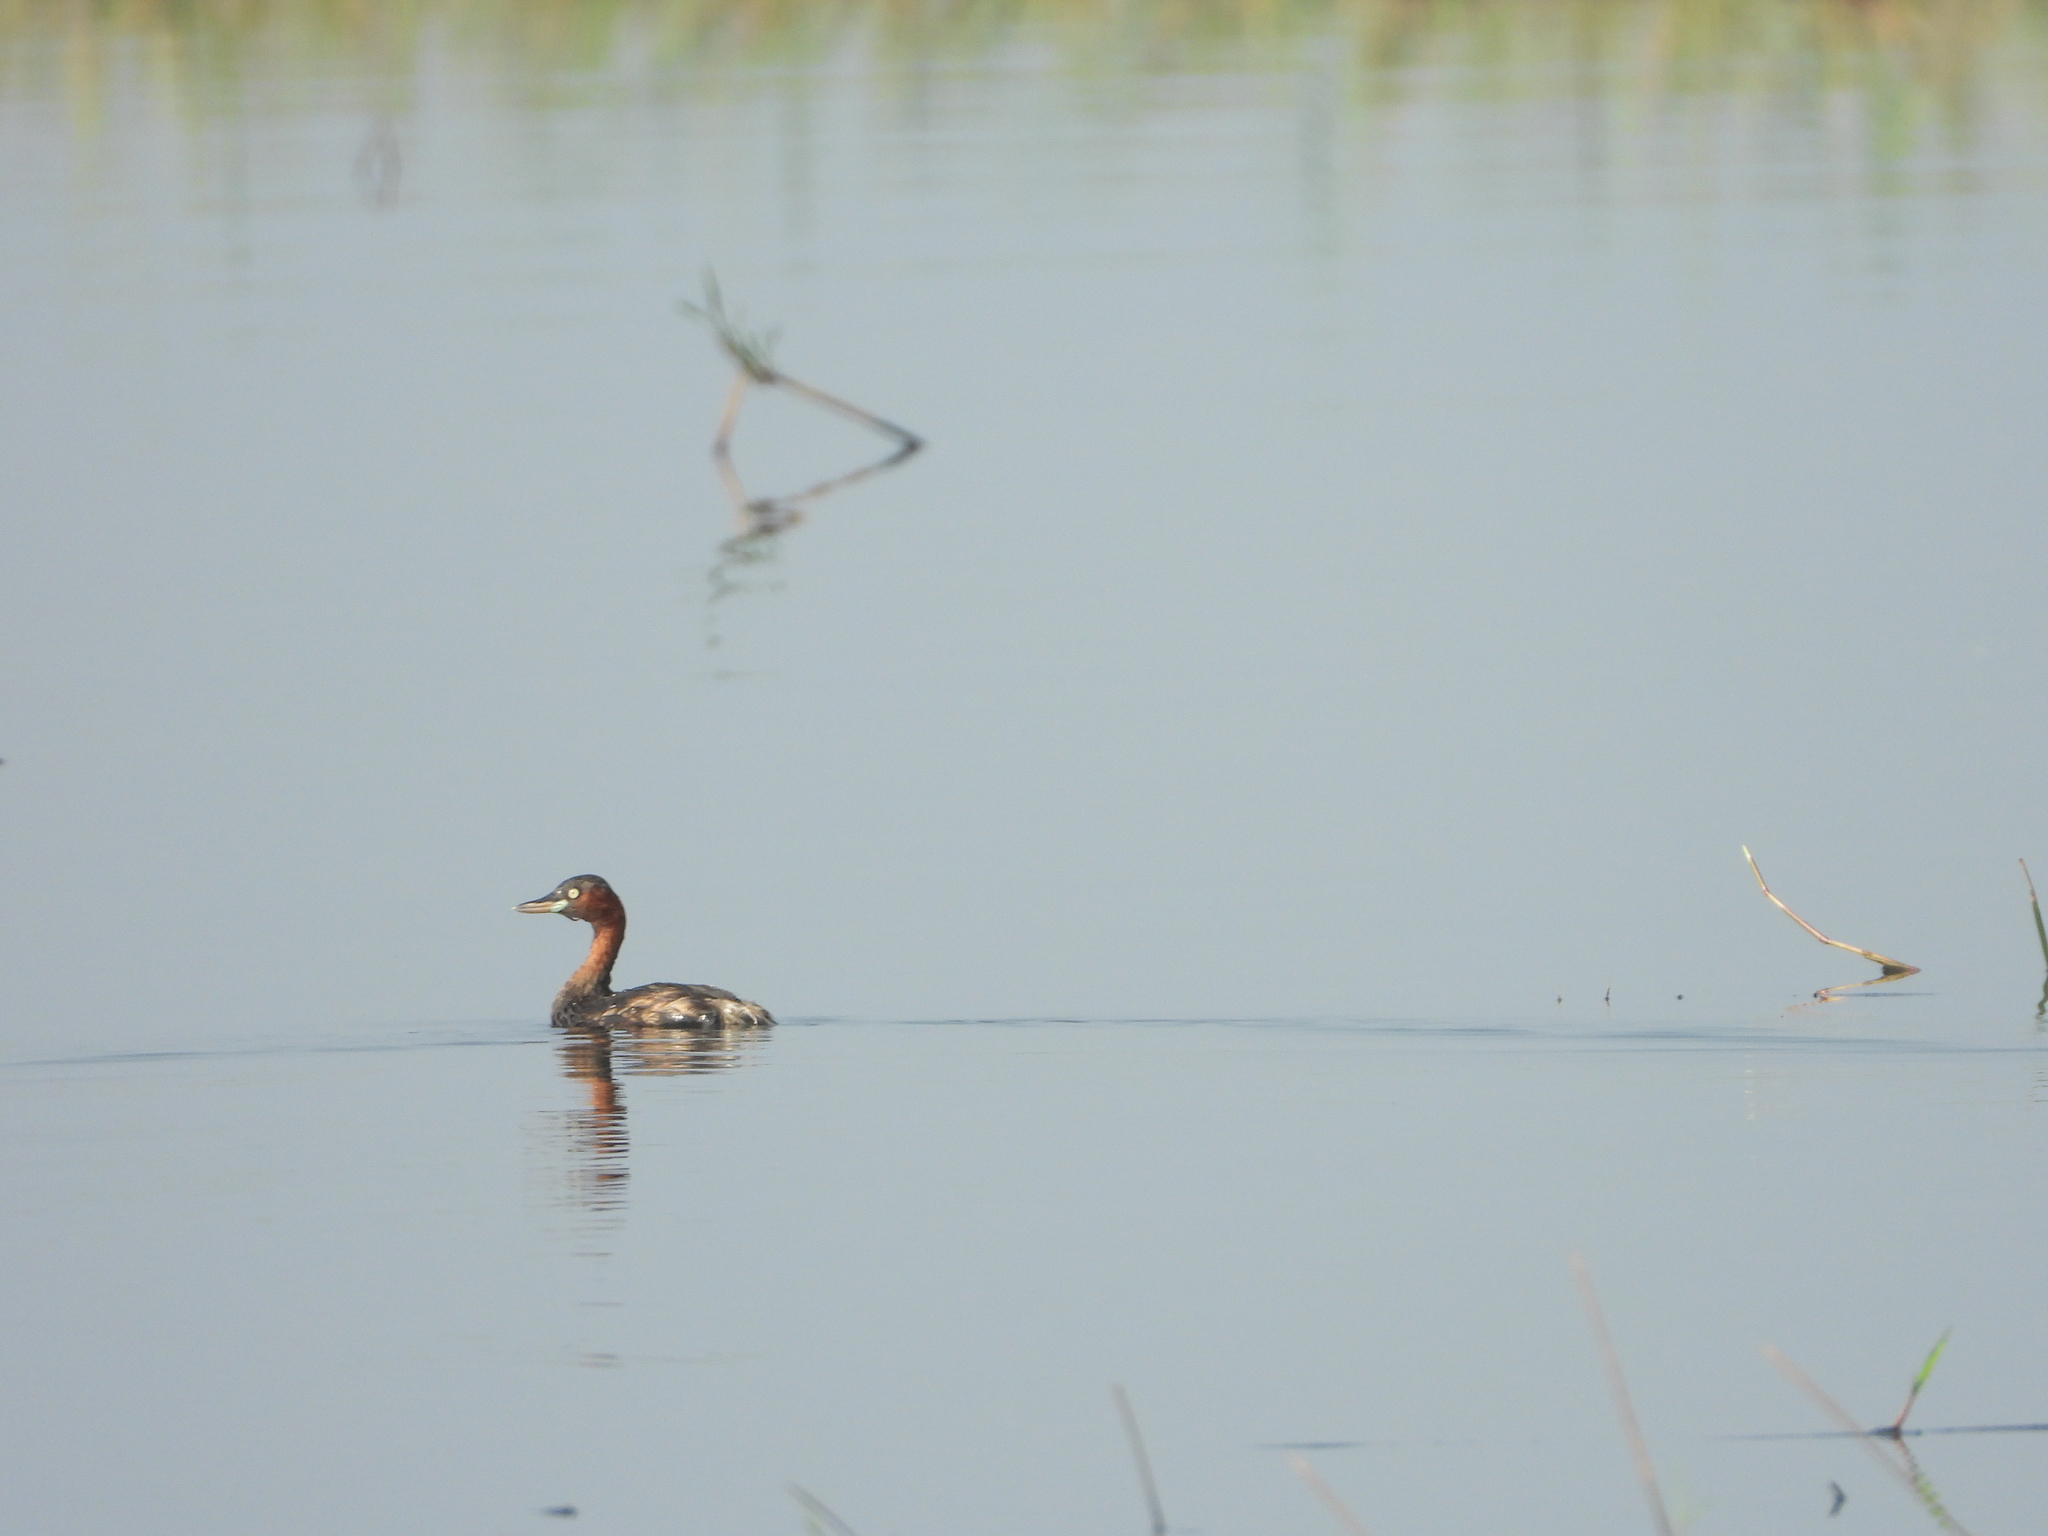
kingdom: Animalia
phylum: Chordata
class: Aves
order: Podicipediformes
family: Podicipedidae
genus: Tachybaptus
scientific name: Tachybaptus ruficollis
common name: Little grebe
